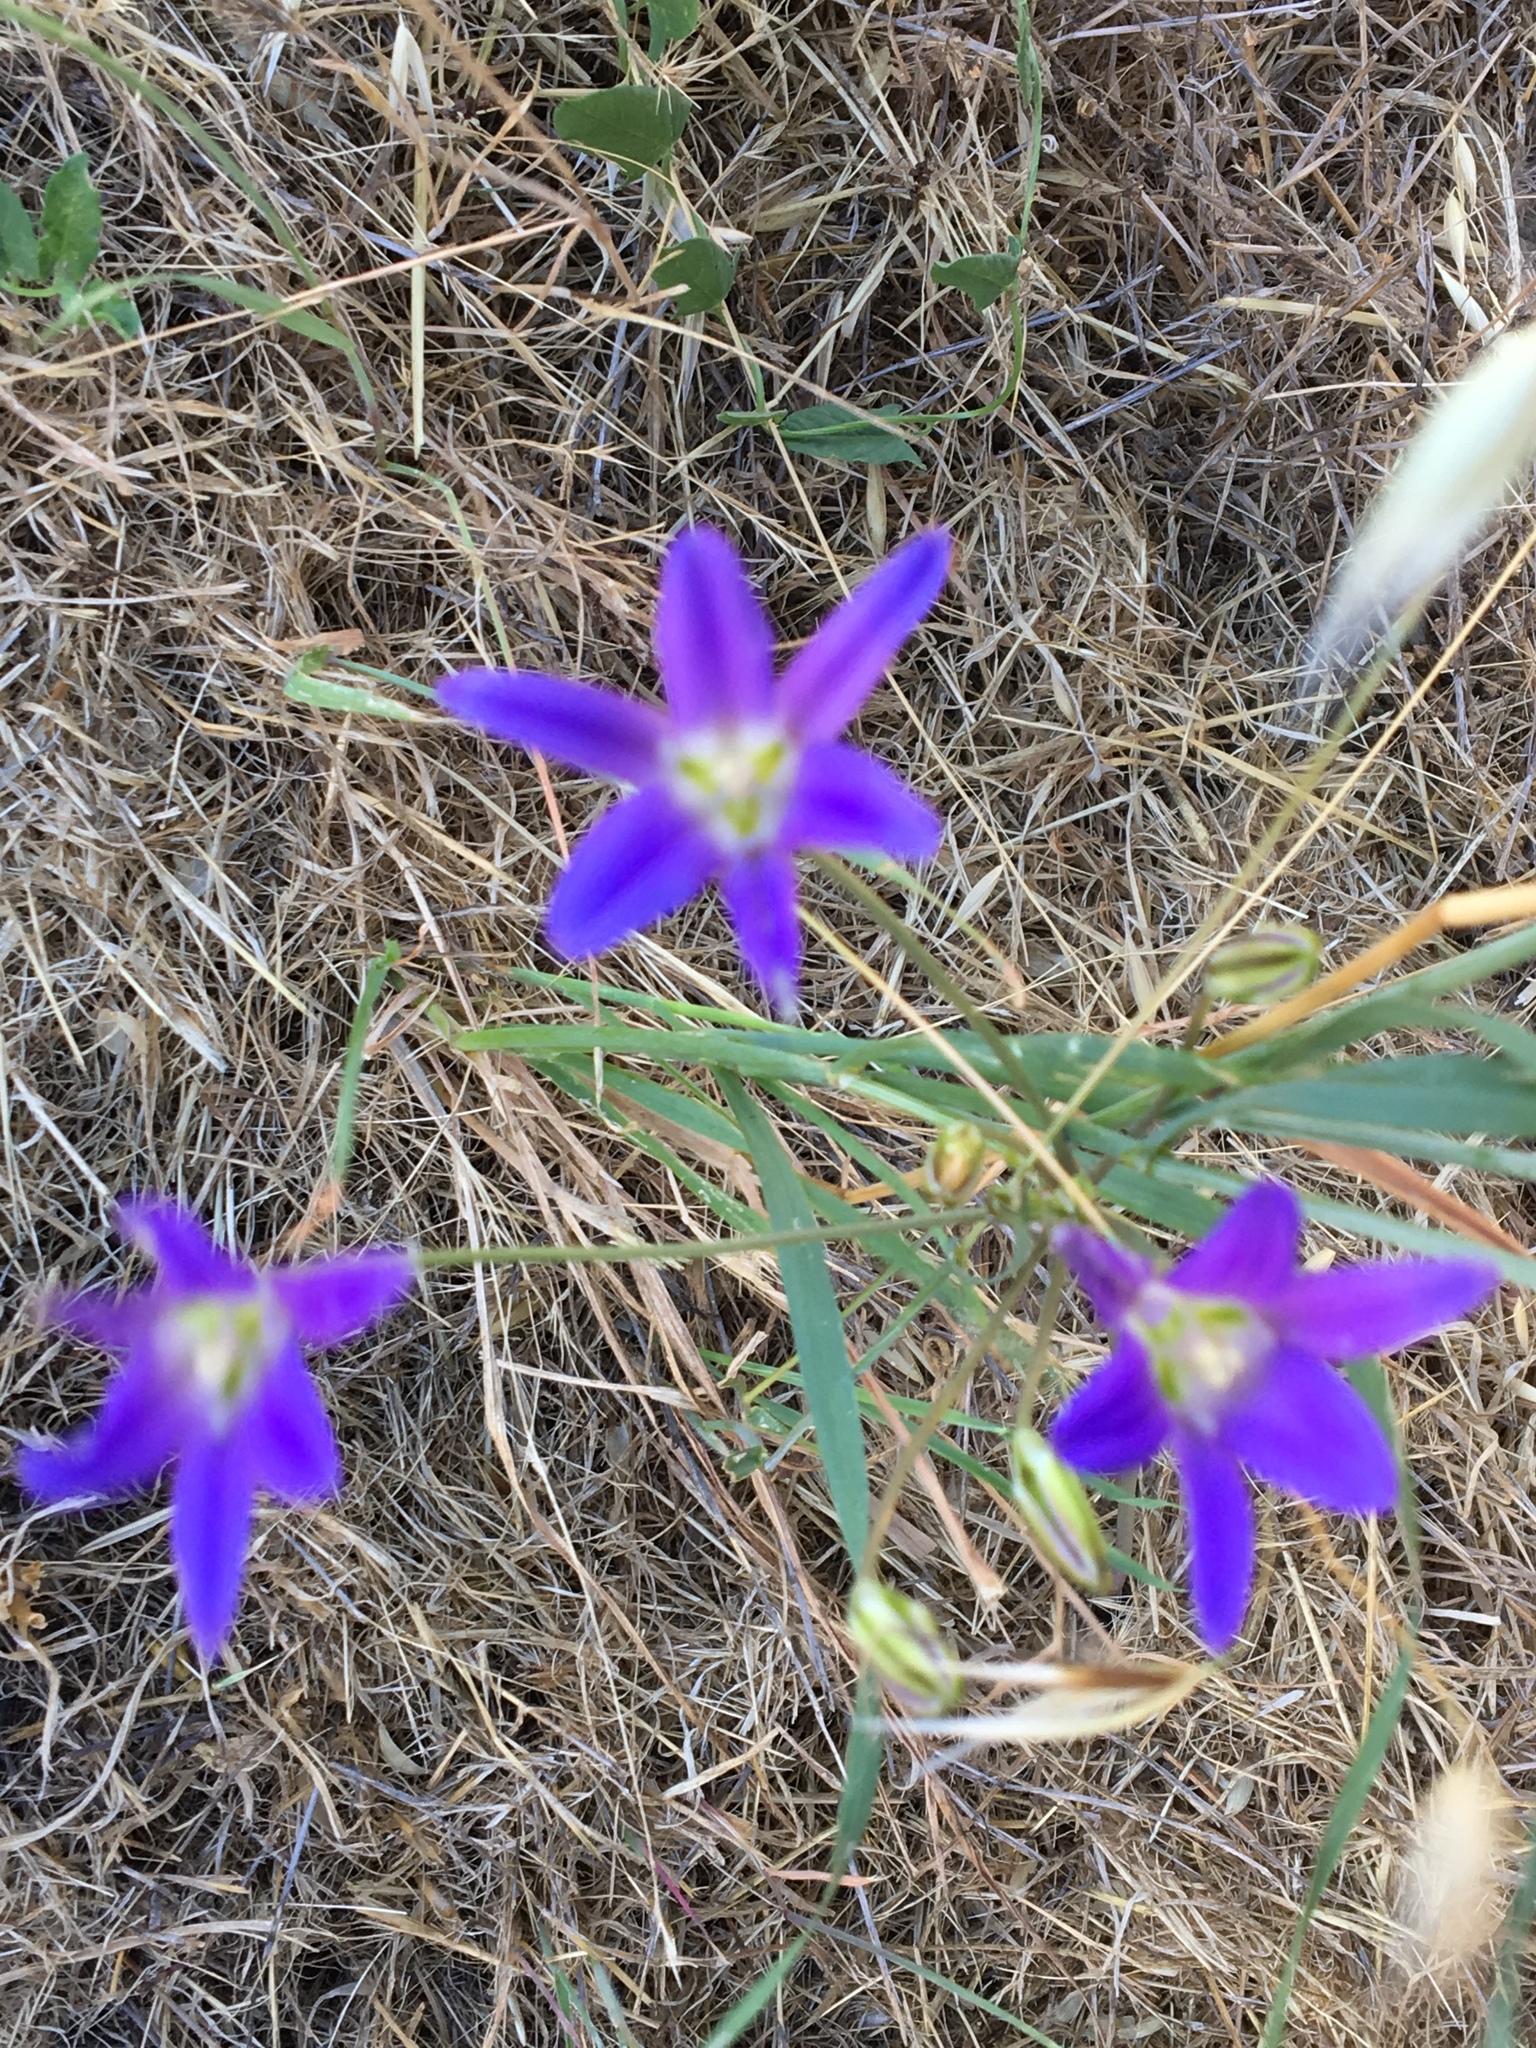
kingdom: Plantae
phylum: Tracheophyta
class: Liliopsida
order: Asparagales
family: Asparagaceae
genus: Brodiaea
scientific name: Brodiaea elegans
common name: Elegant cluster-lily
